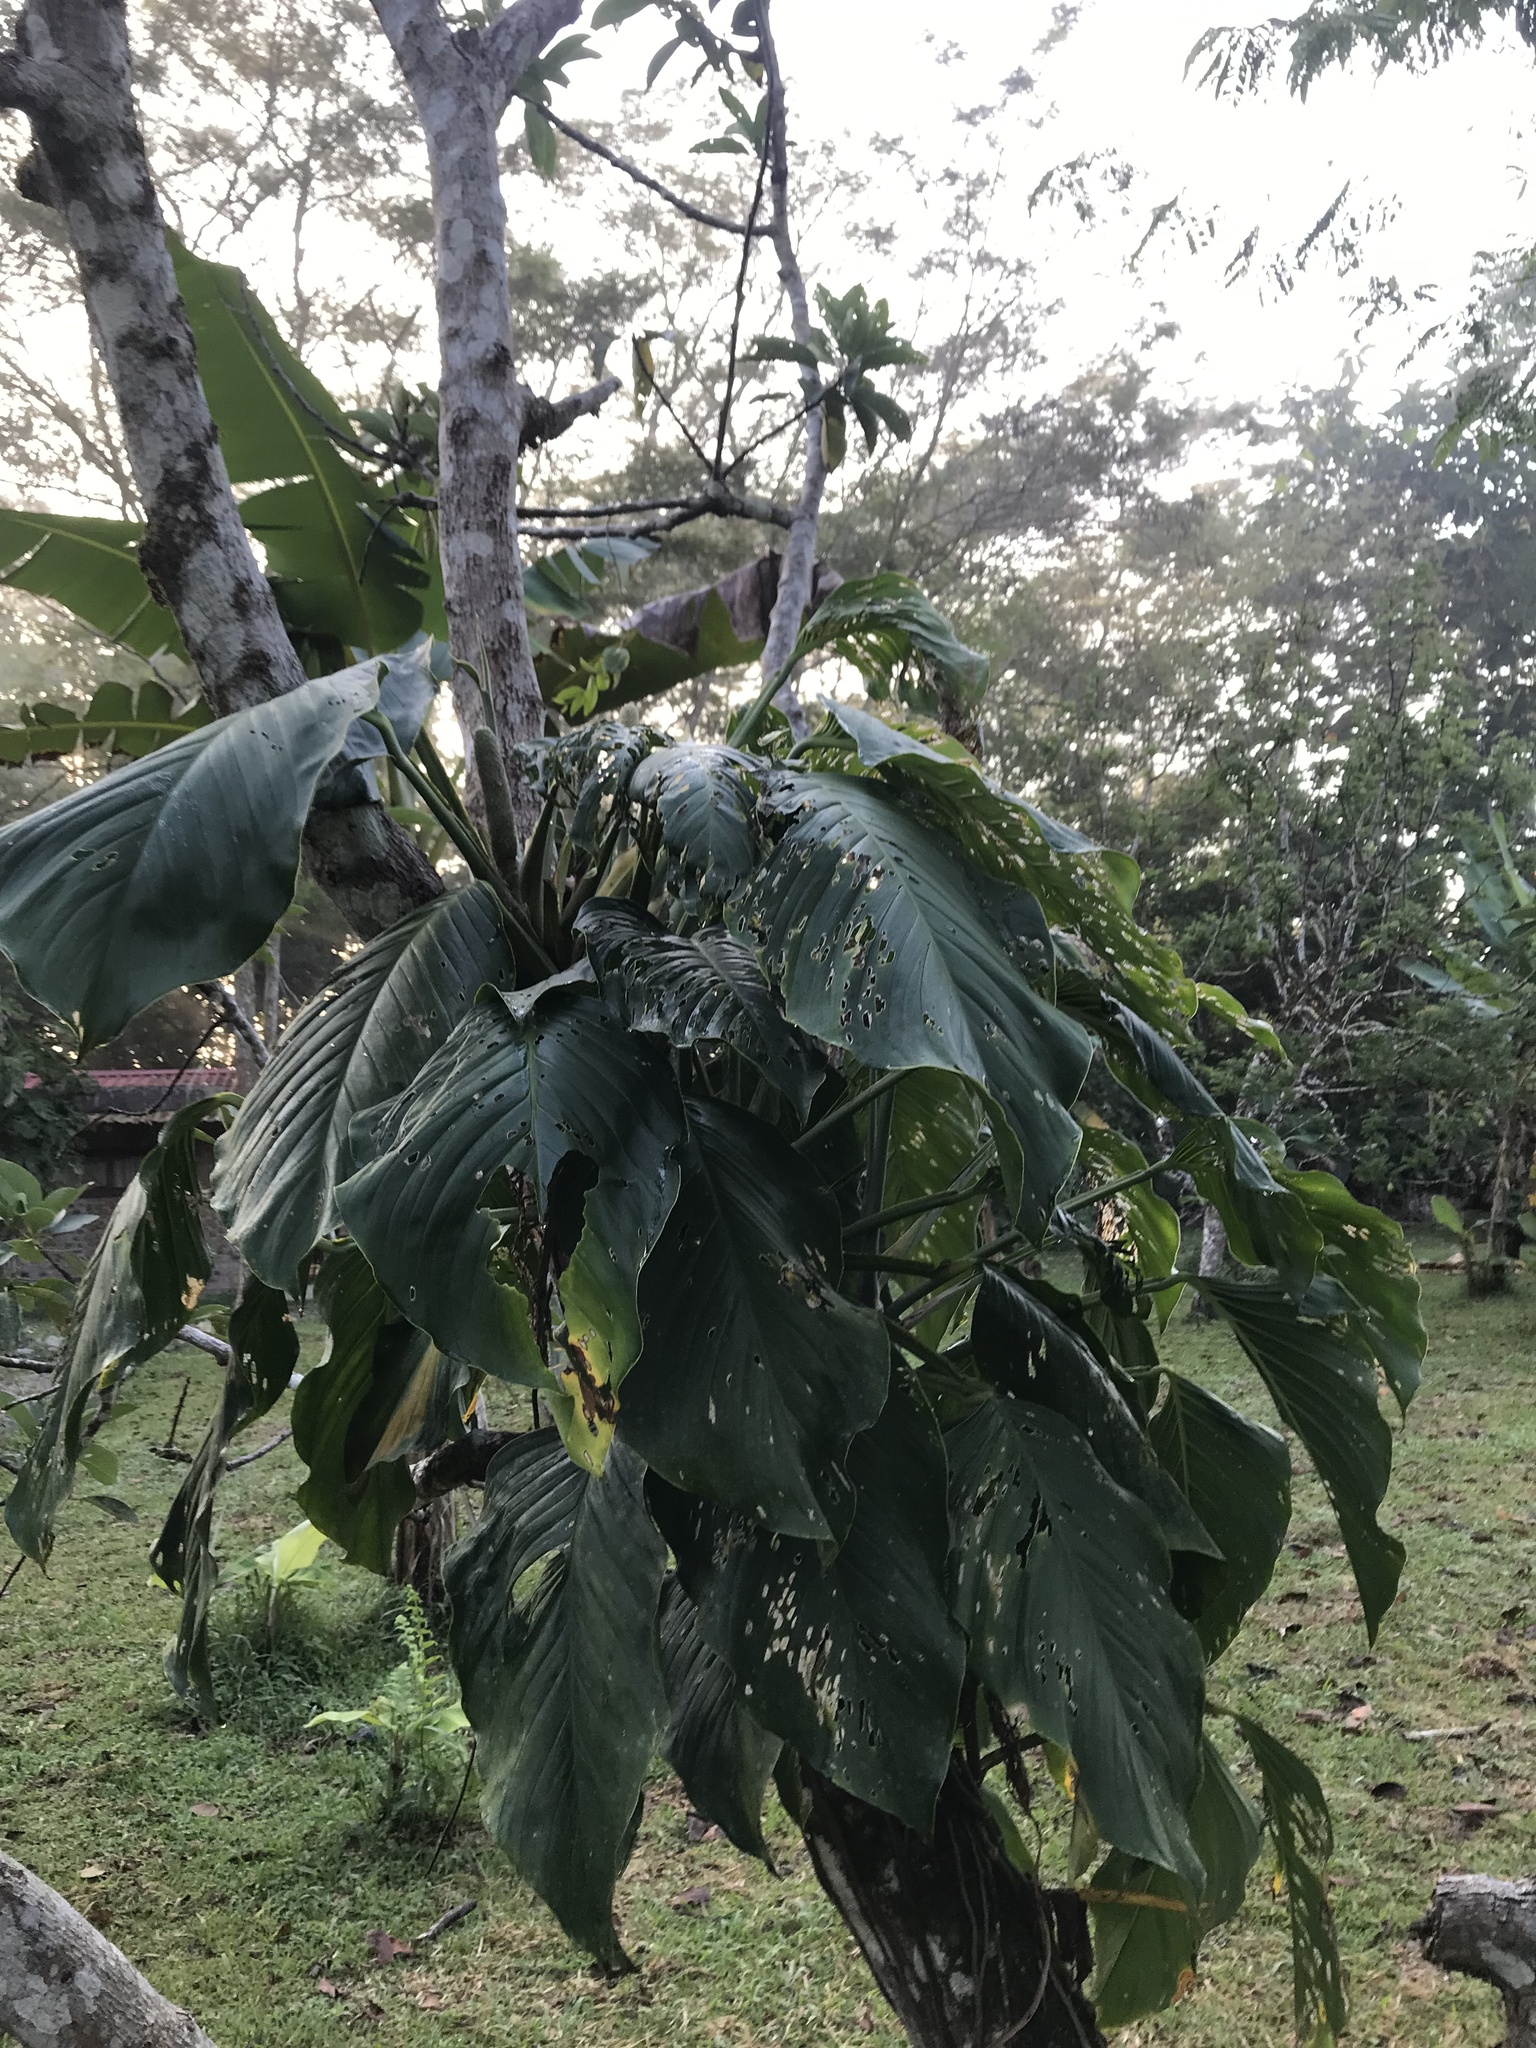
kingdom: Plantae
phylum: Tracheophyta
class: Liliopsida
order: Alismatales
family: Araceae
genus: Monstera
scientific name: Monstera adansonii
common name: Tarovine
